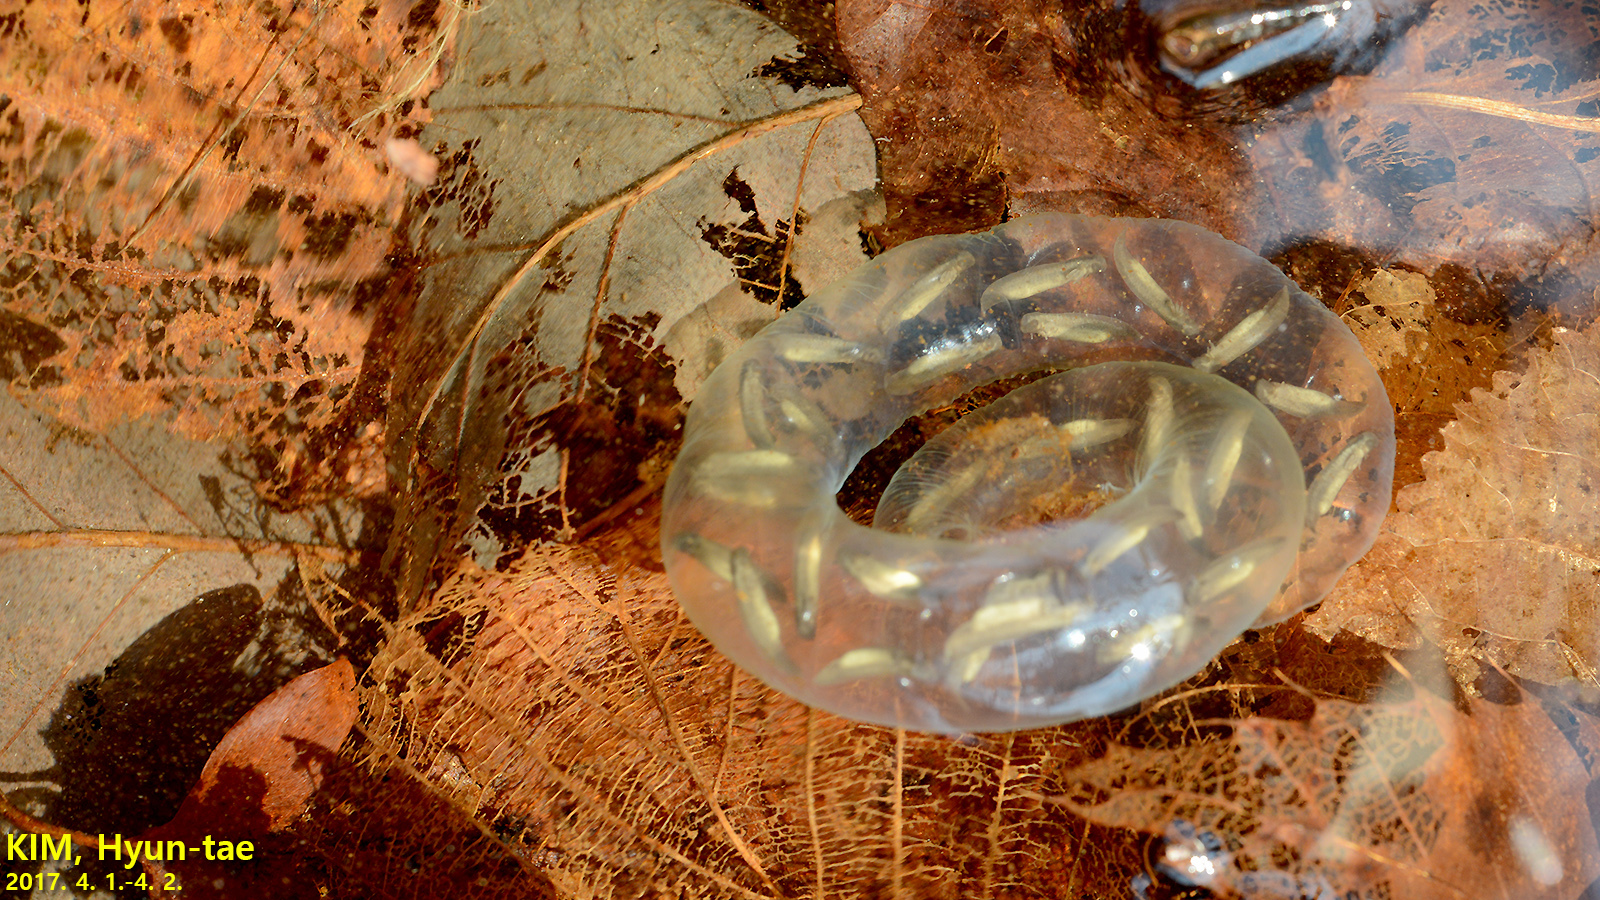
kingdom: Animalia
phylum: Chordata
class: Amphibia
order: Caudata
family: Hynobiidae
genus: Hynobius
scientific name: Hynobius quelpaertensis
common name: Cheju salamander
